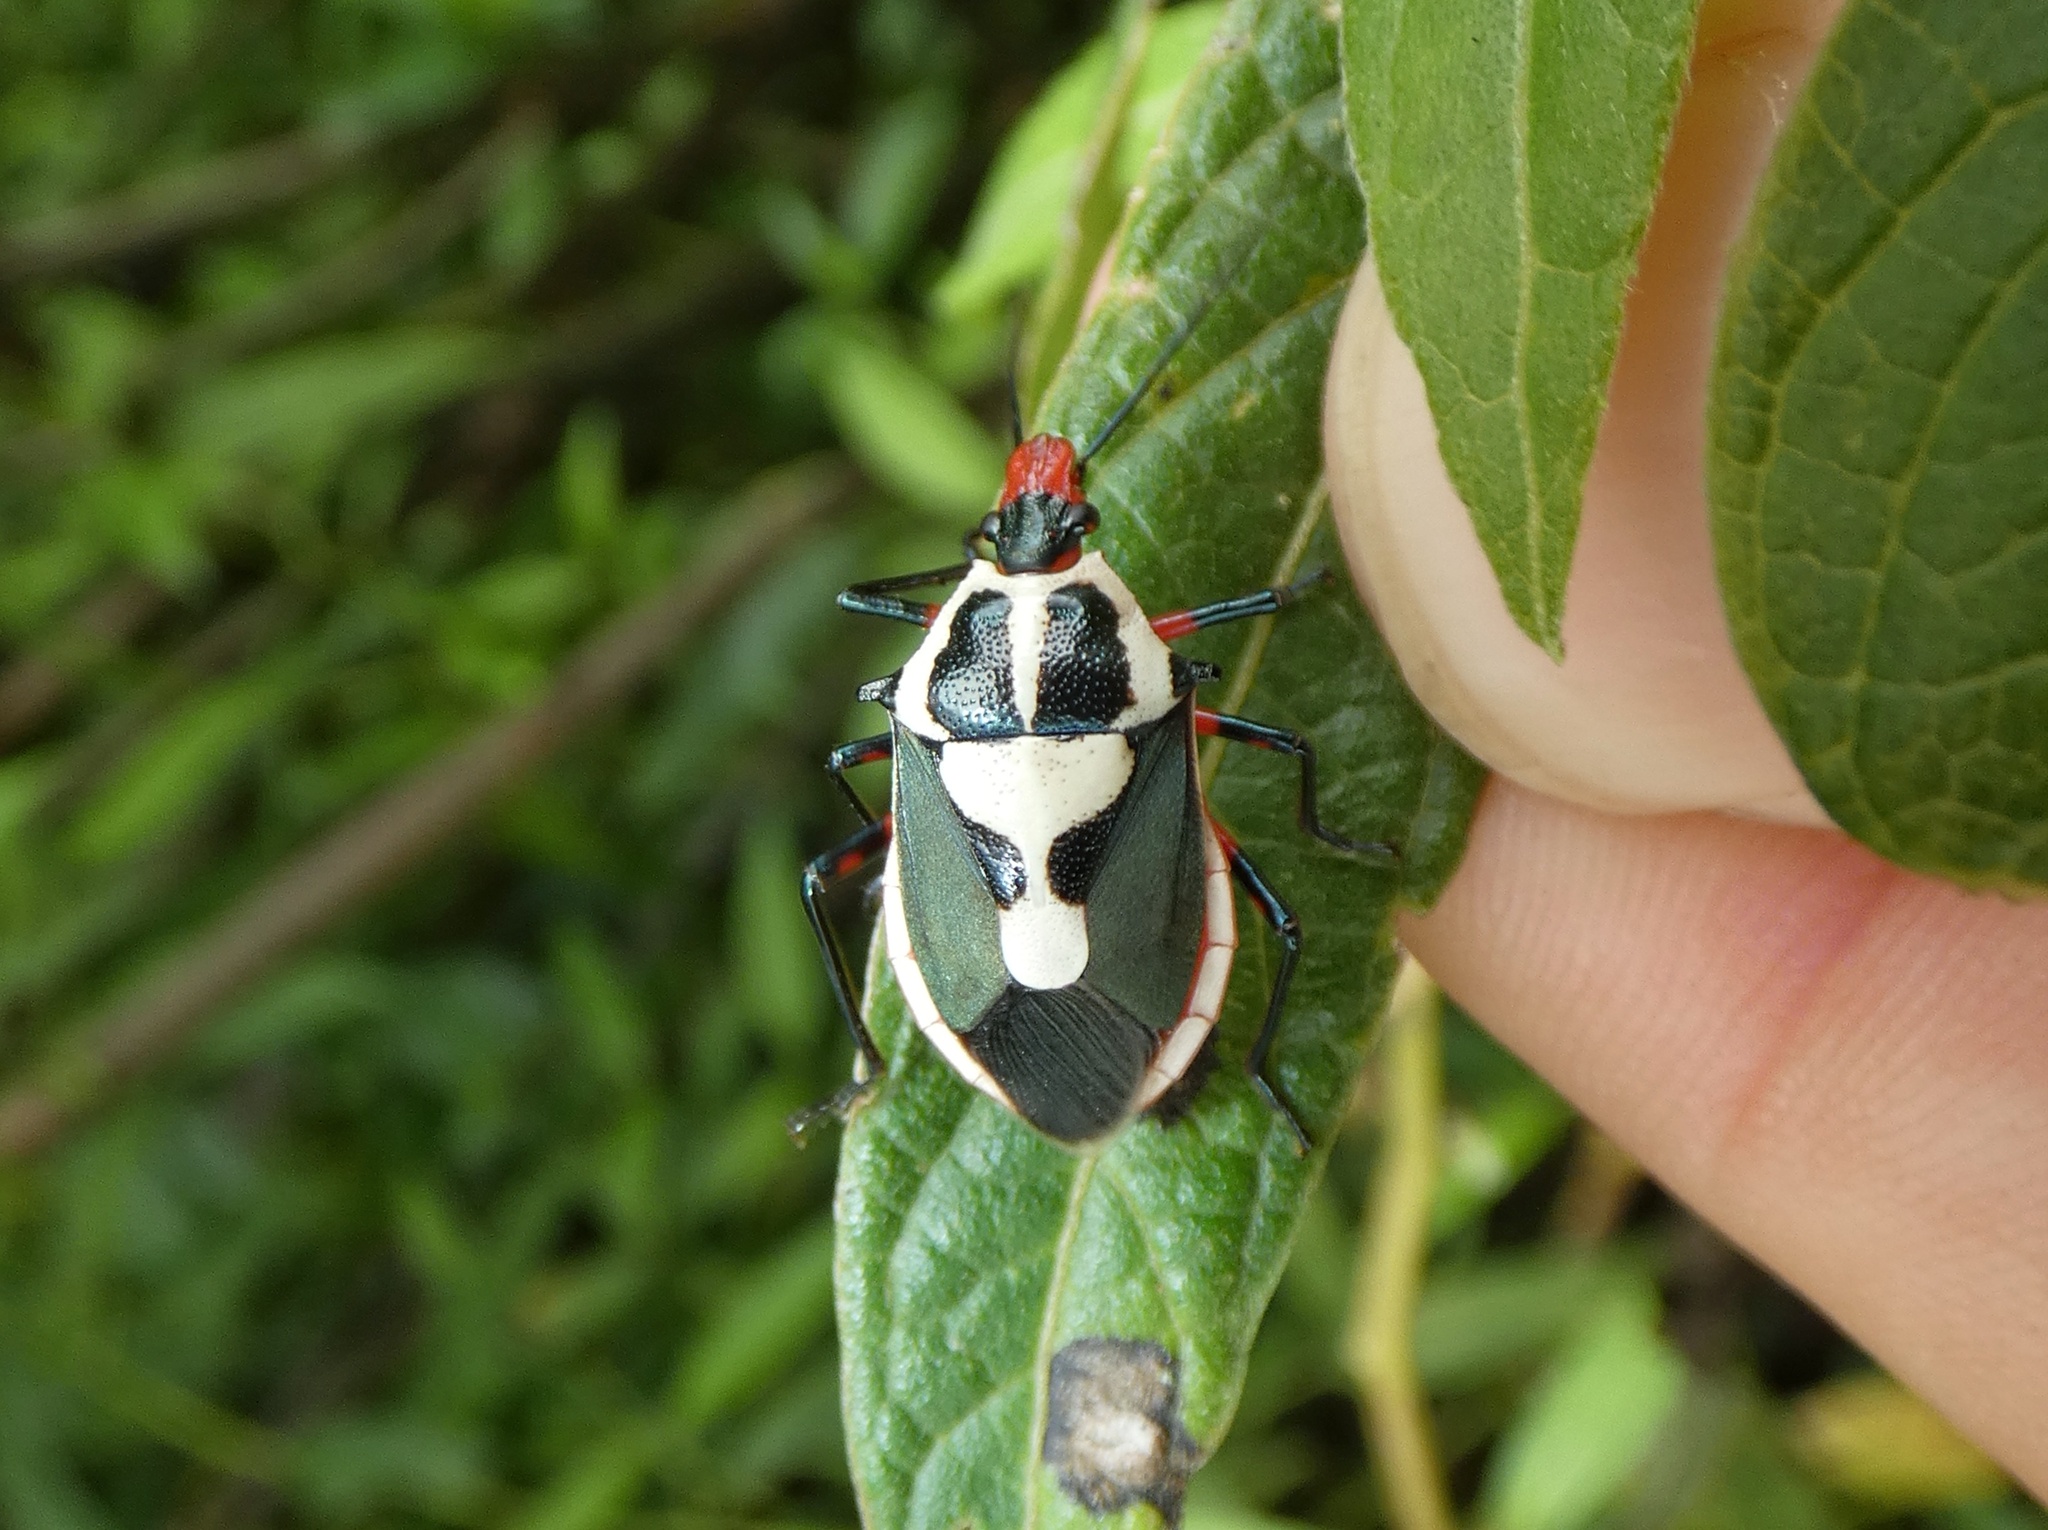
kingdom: Animalia
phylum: Arthropoda
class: Insecta
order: Hemiptera
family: Pentatomidae
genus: Euthyrhynchus
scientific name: Euthyrhynchus floridanus
